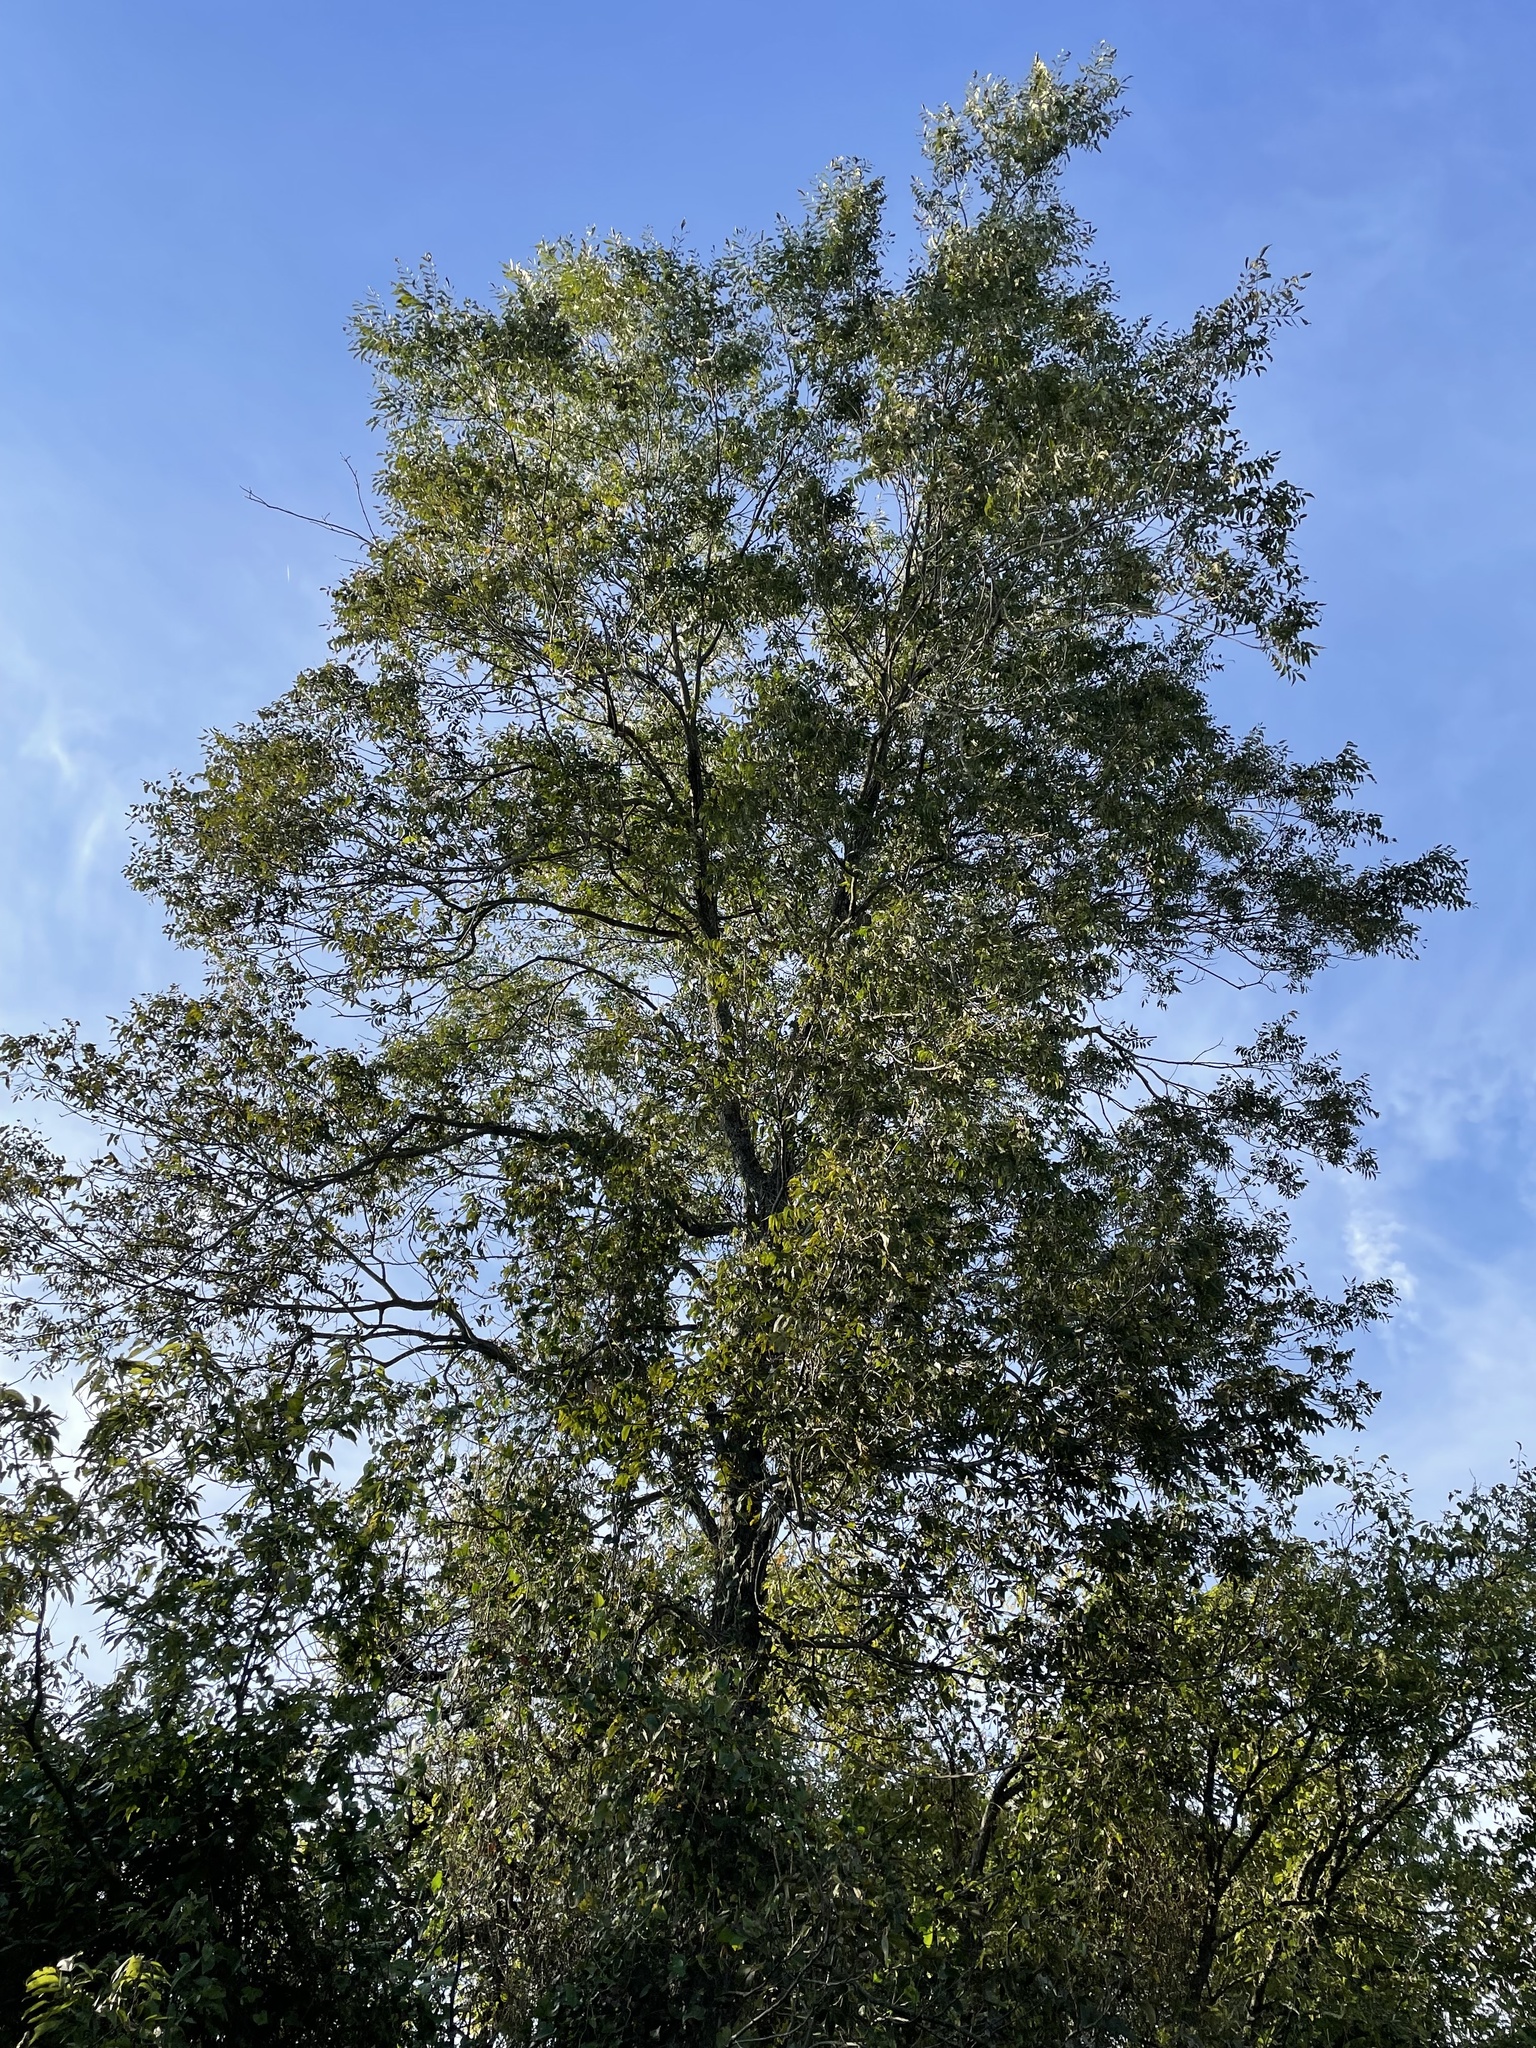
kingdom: Plantae
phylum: Tracheophyta
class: Magnoliopsida
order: Fagales
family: Juglandaceae
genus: Carya
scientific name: Carya illinoinensis
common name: Pecan
